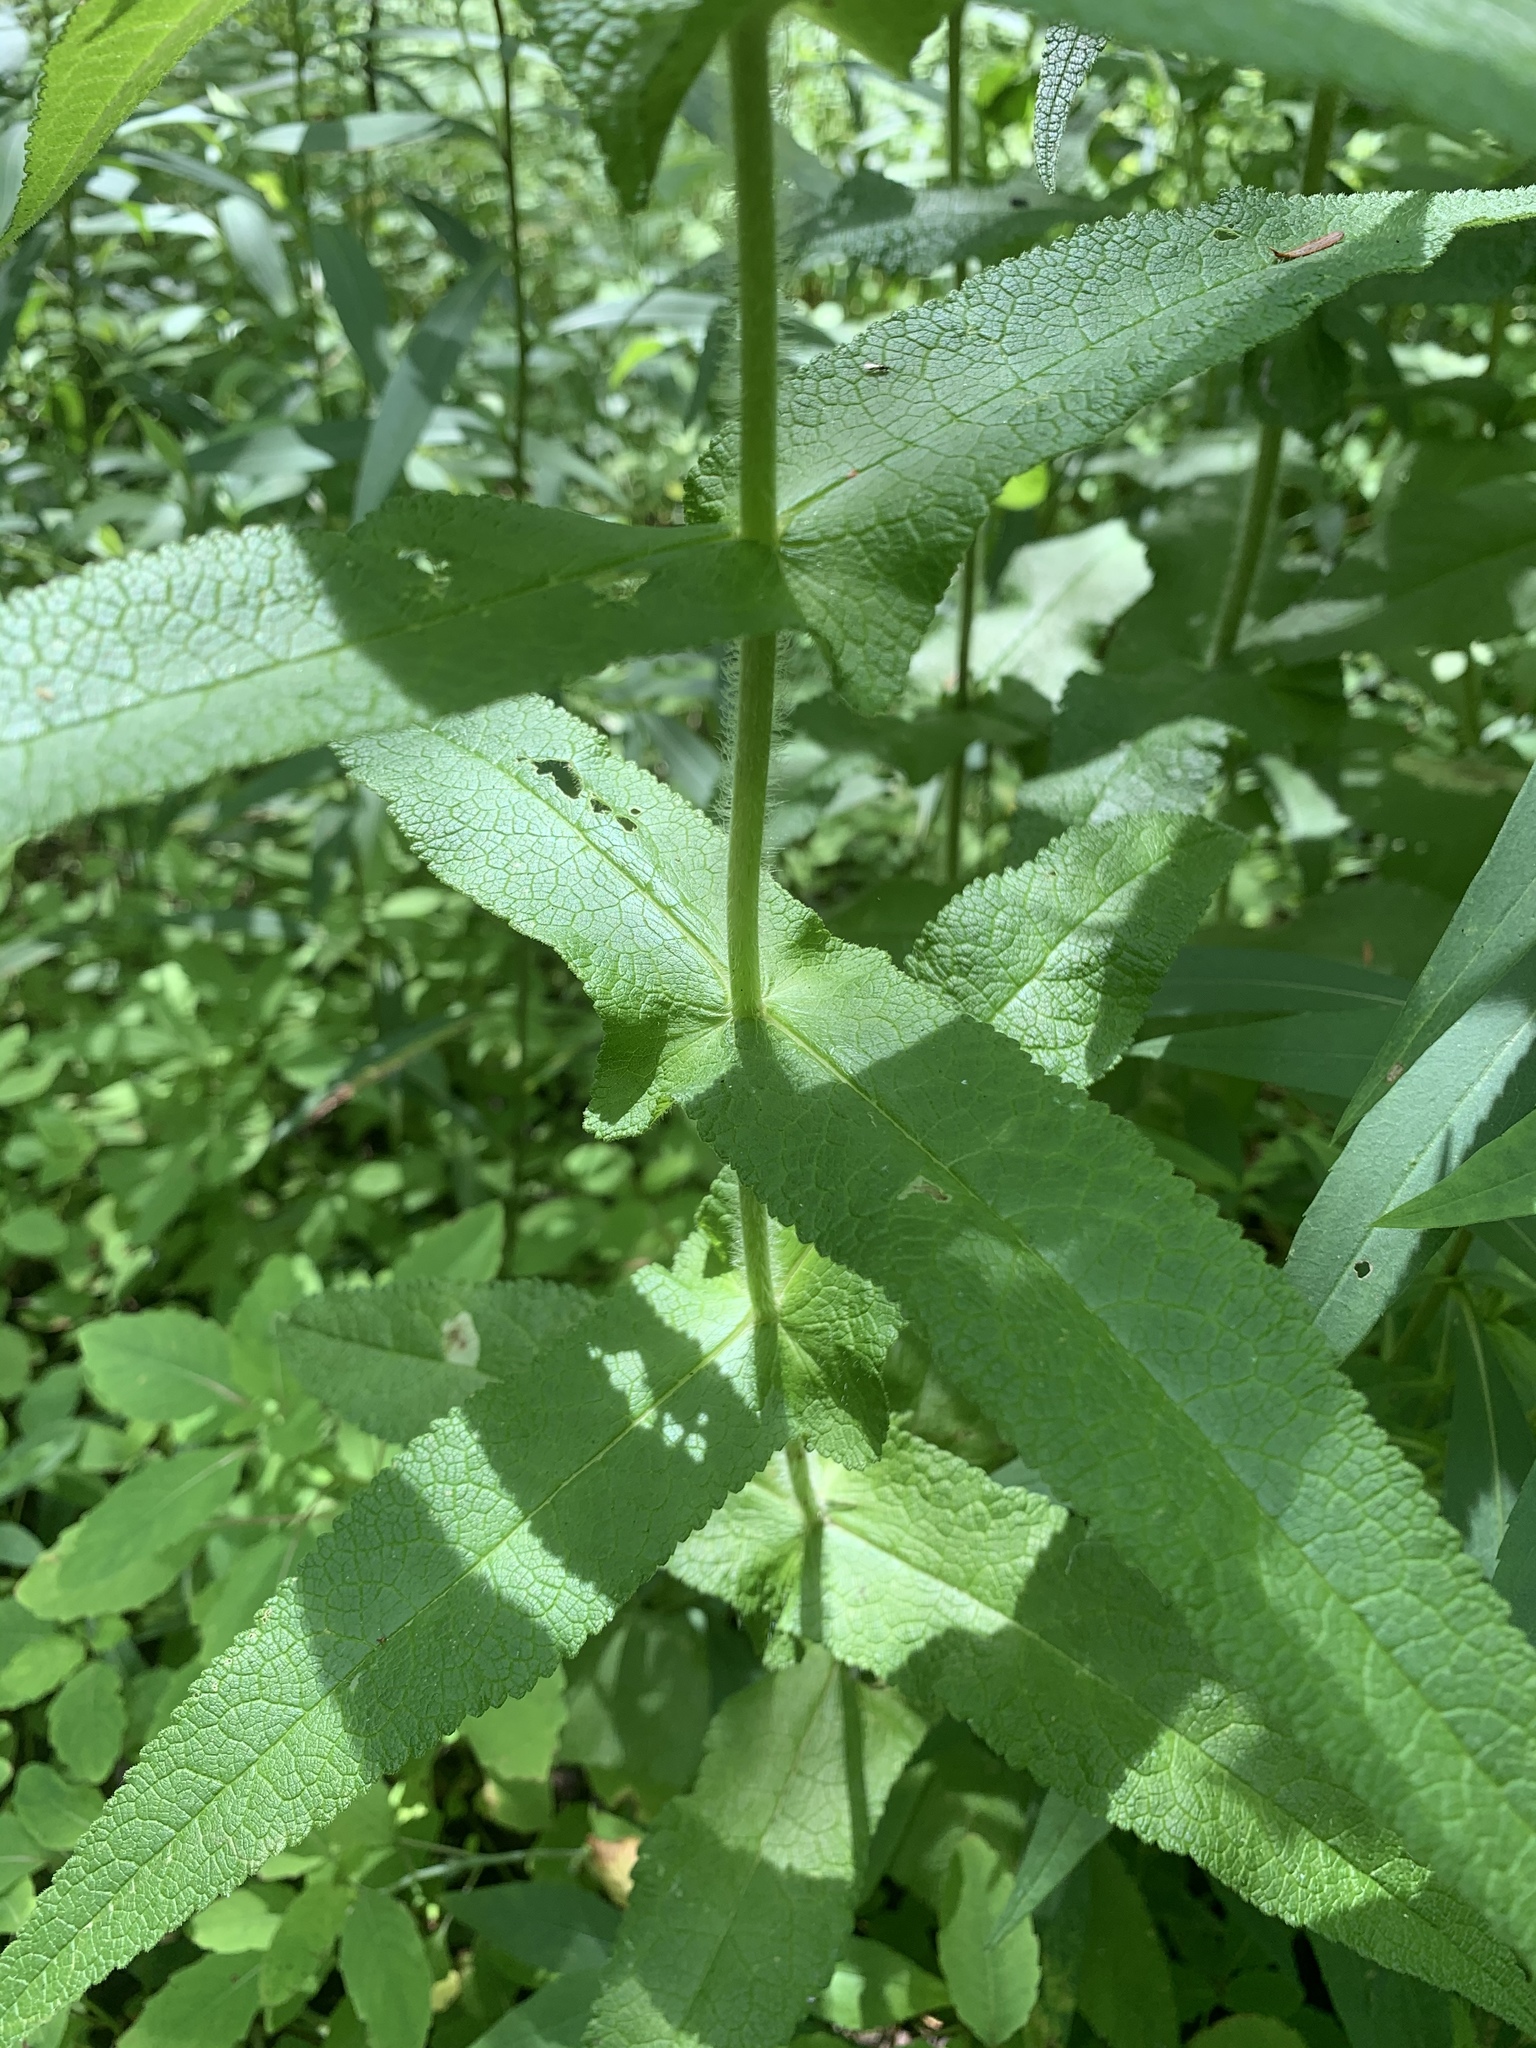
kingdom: Plantae
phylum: Tracheophyta
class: Magnoliopsida
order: Asterales
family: Asteraceae
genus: Eupatorium
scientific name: Eupatorium perfoliatum
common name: Boneset
